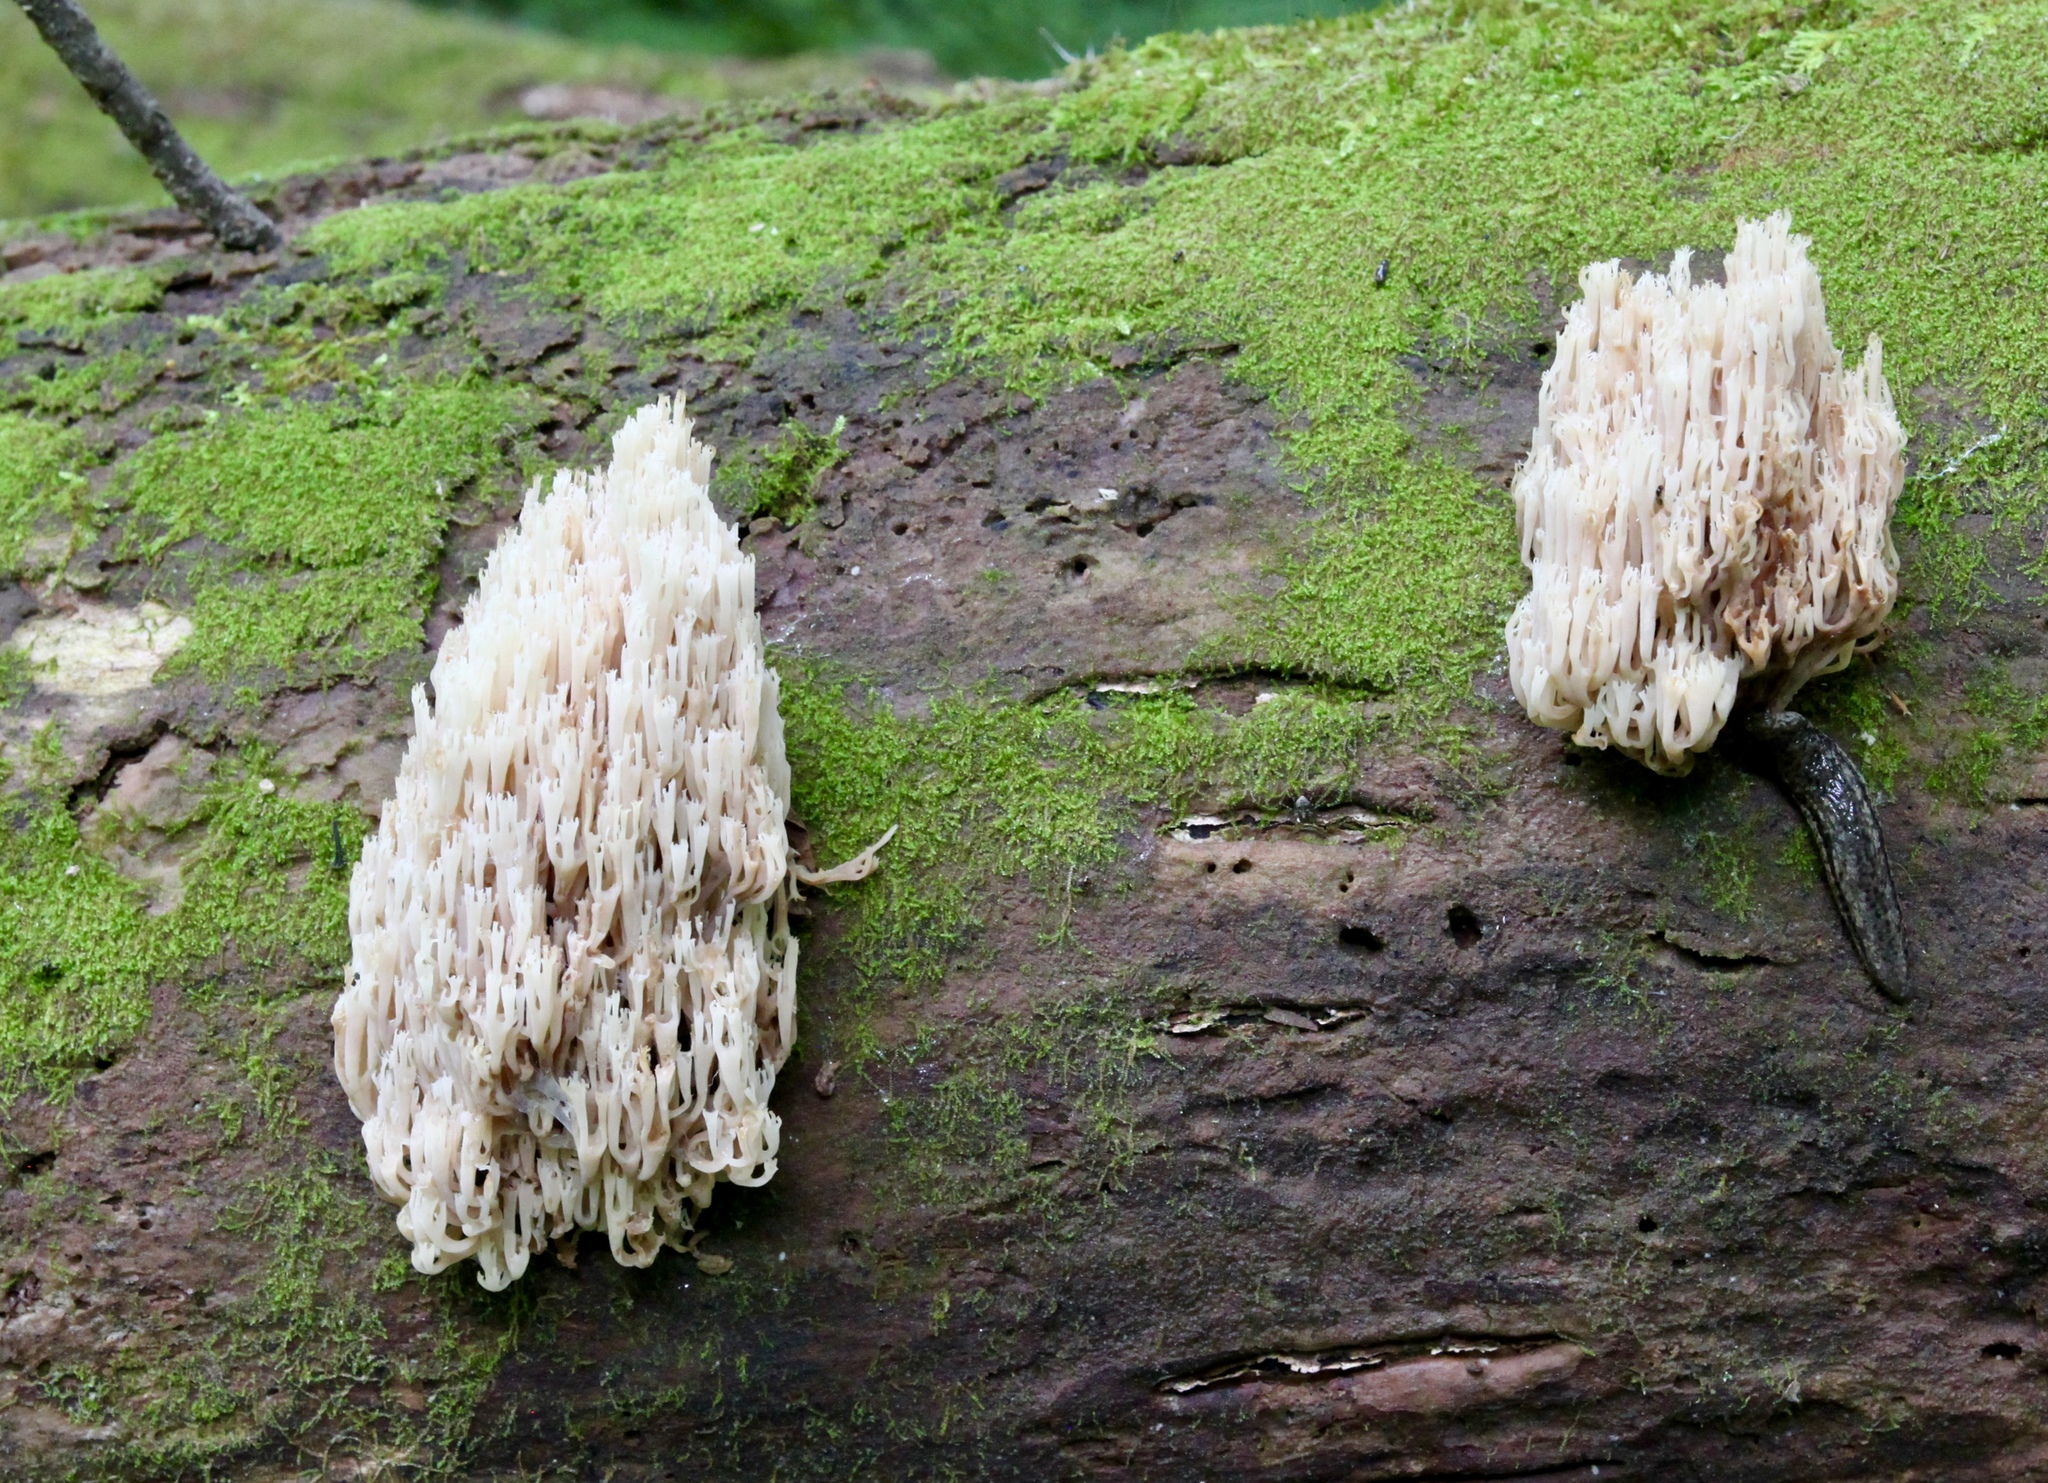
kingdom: Fungi
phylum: Basidiomycota
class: Agaricomycetes
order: Russulales
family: Auriscalpiaceae
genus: Artomyces
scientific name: Artomyces pyxidatus
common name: Crown-tipped coral fungus
